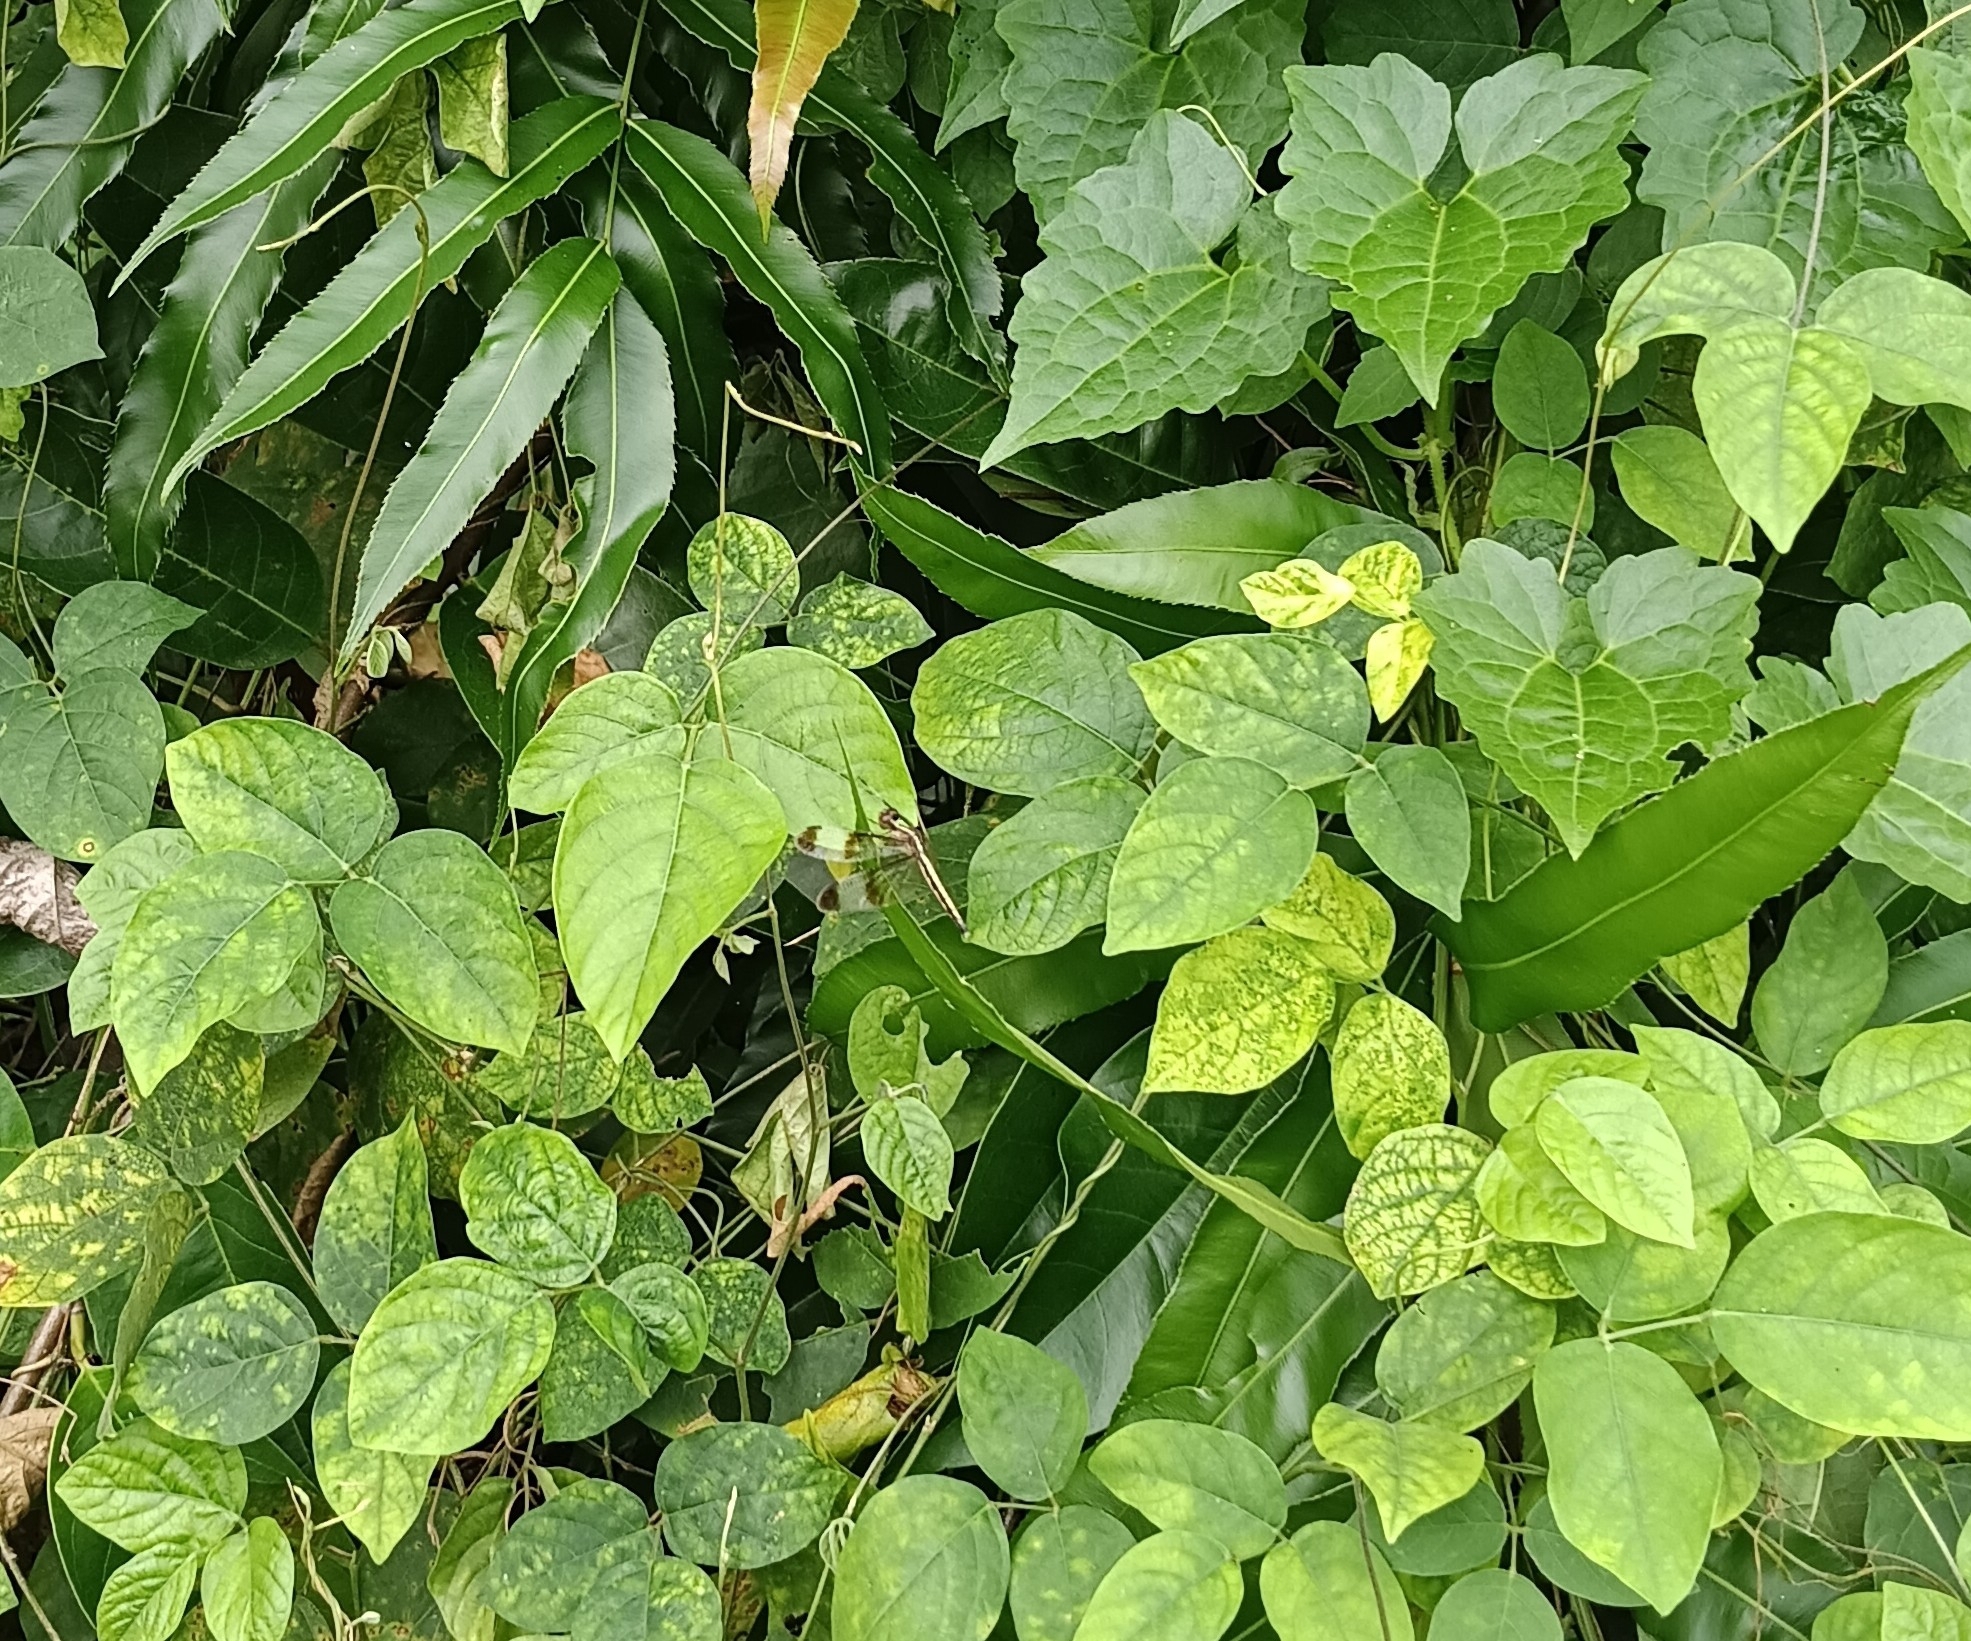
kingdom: Animalia
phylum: Arthropoda
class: Insecta
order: Odonata
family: Libellulidae
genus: Neurothemis
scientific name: Neurothemis tullia
